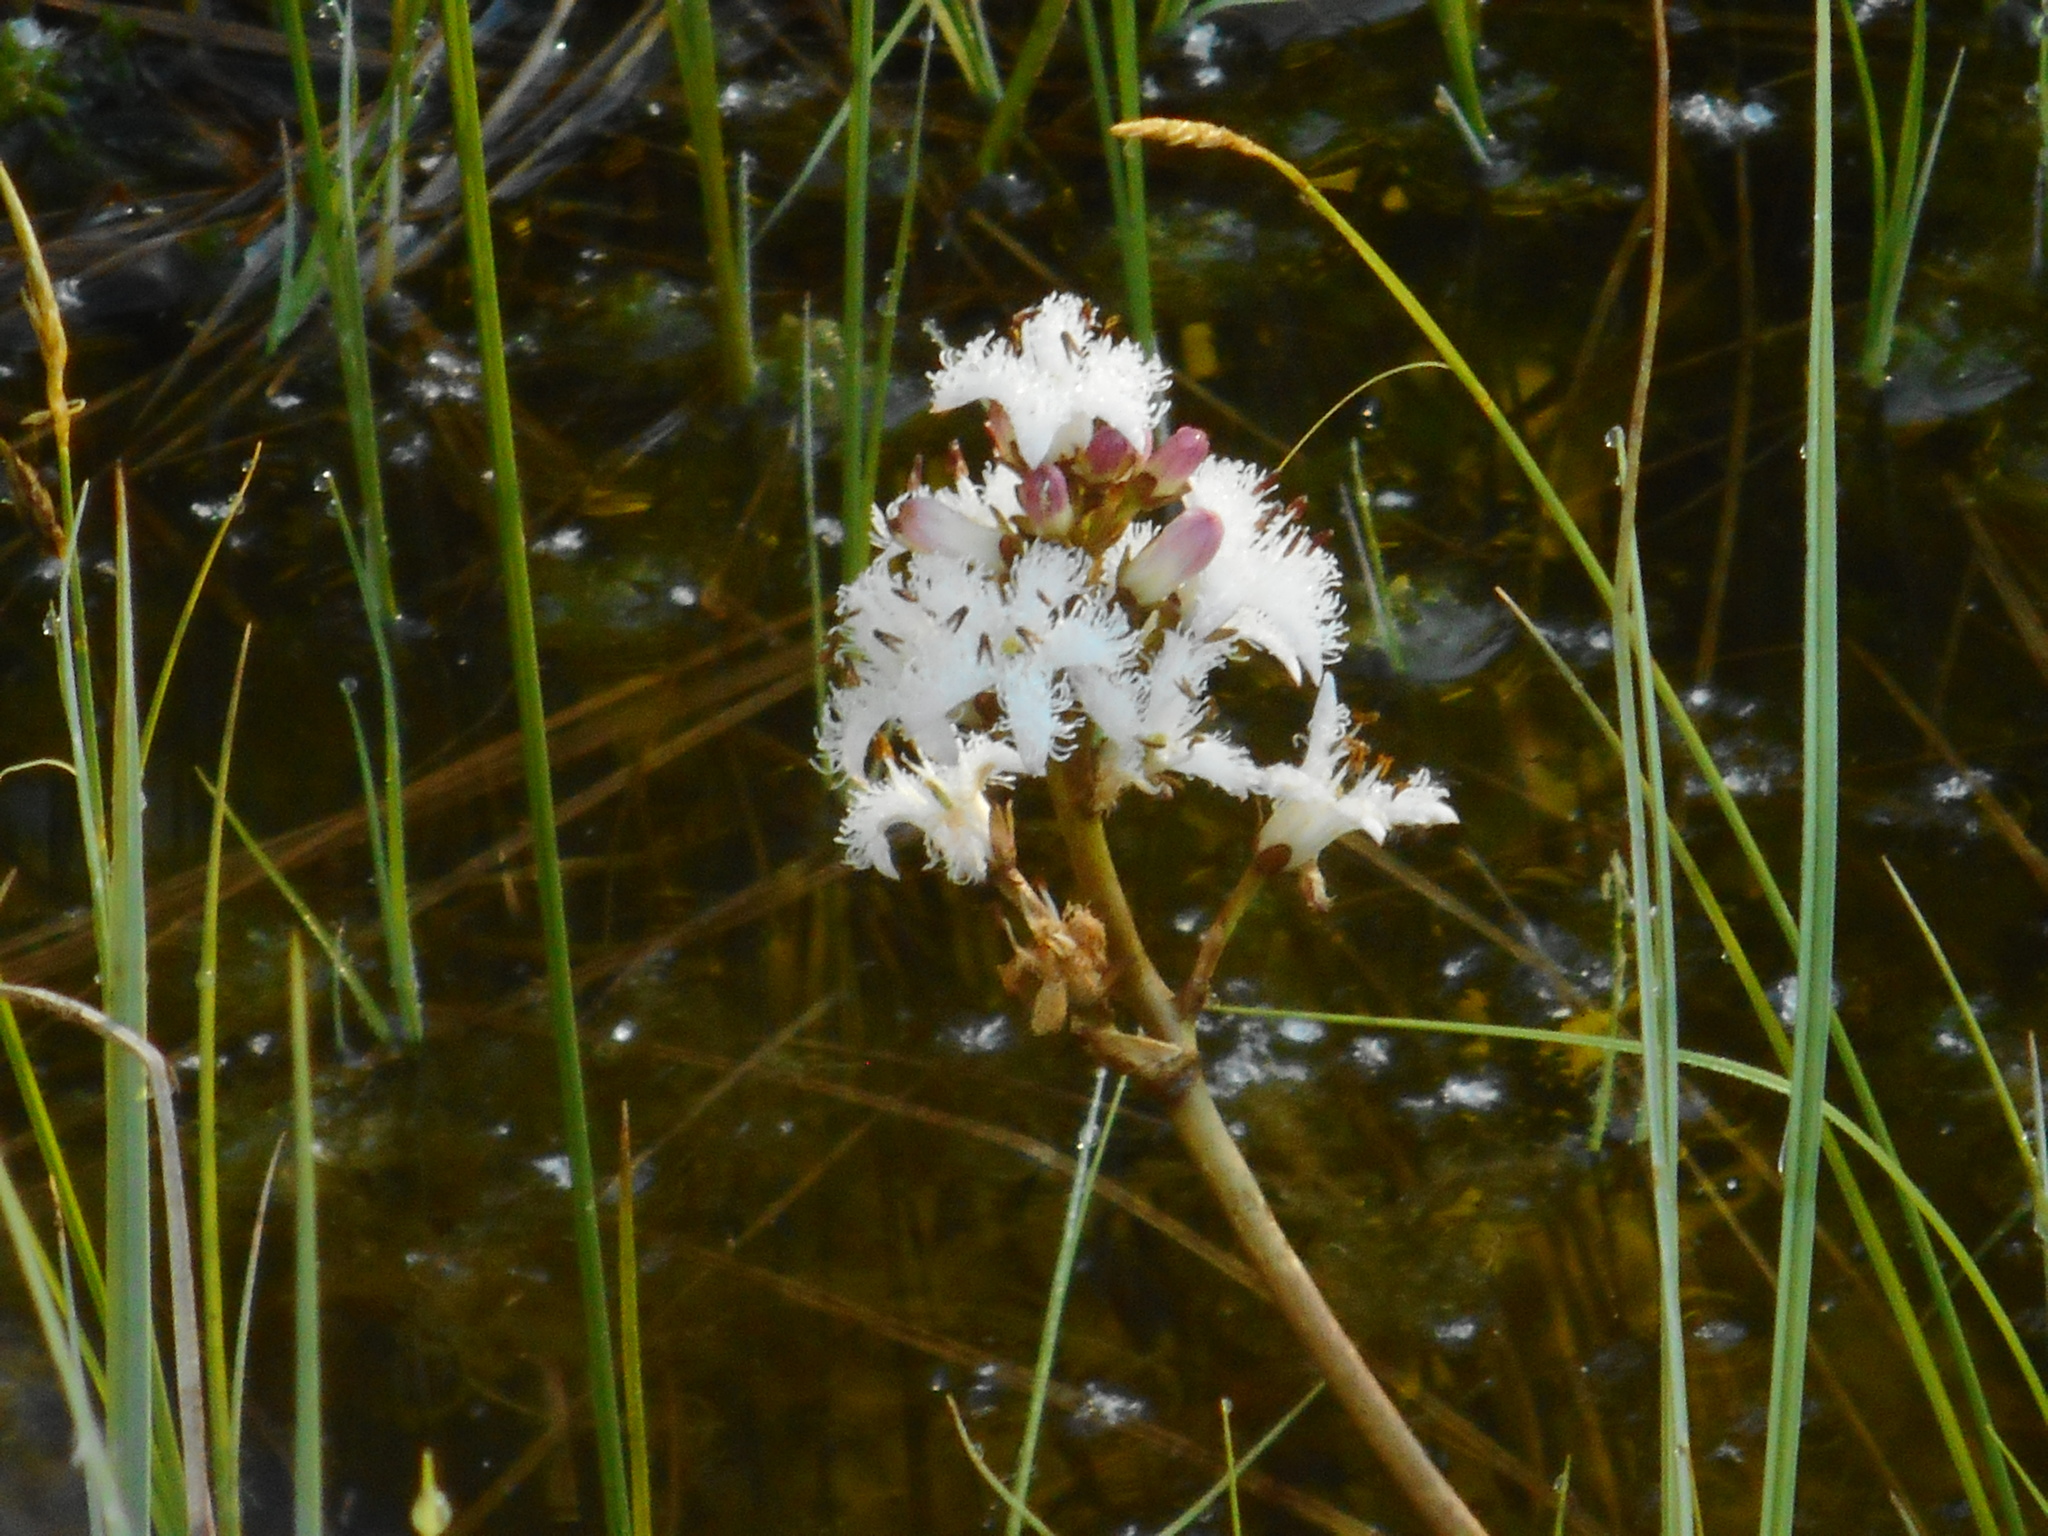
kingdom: Plantae
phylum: Tracheophyta
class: Magnoliopsida
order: Asterales
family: Menyanthaceae
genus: Menyanthes
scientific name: Menyanthes trifoliata
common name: Bogbean
